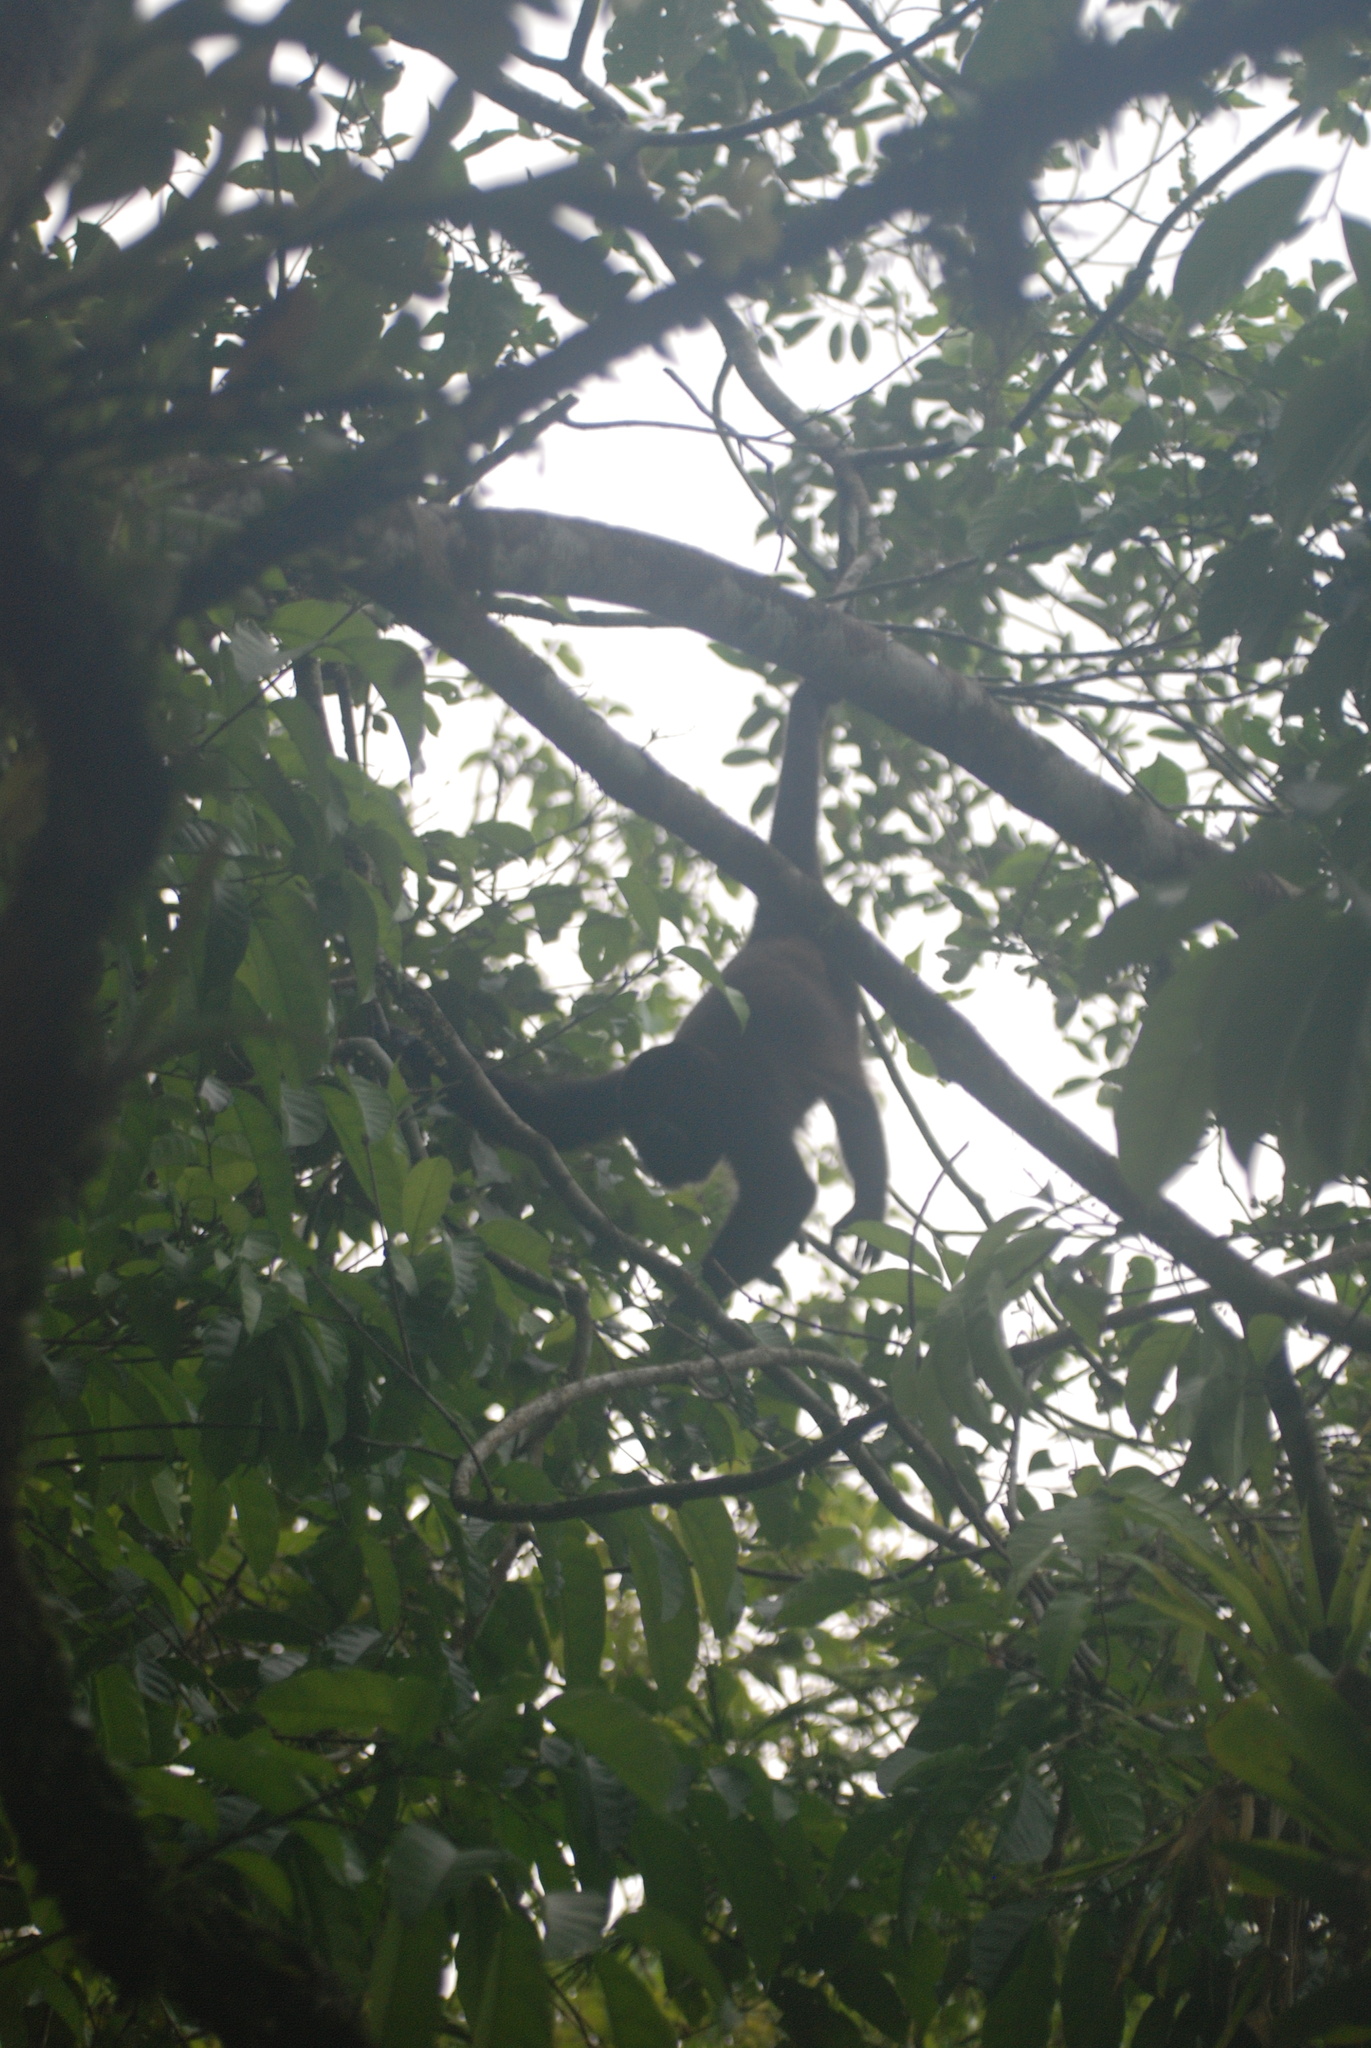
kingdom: Animalia
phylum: Chordata
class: Mammalia
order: Primates
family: Atelidae
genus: Alouatta
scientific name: Alouatta palliata
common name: Mantled howler
